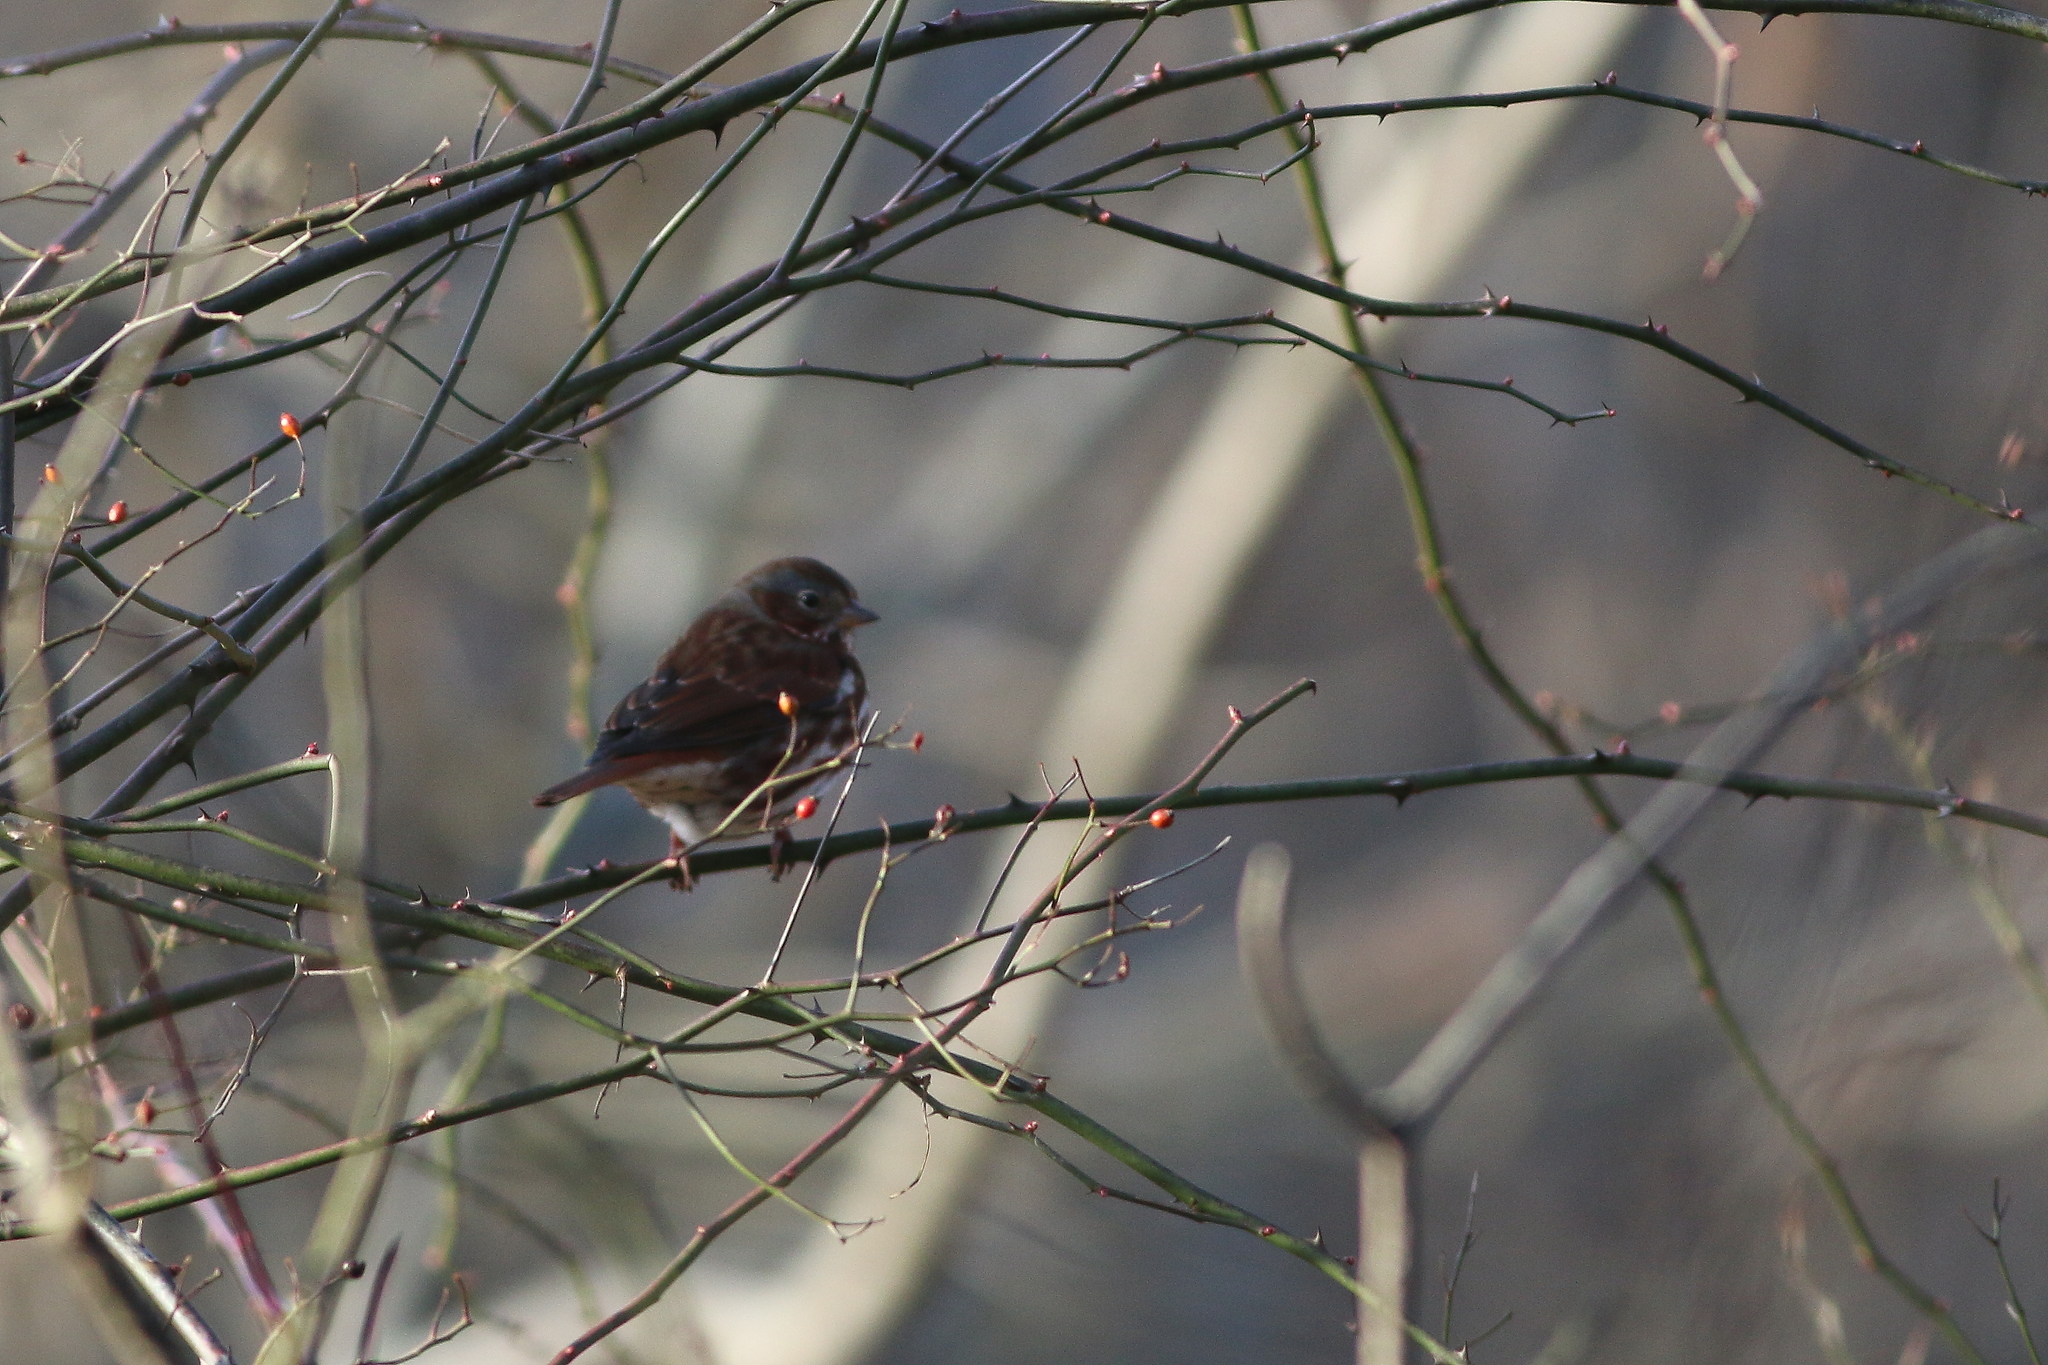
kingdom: Animalia
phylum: Chordata
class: Aves
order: Passeriformes
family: Passerellidae
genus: Passerella
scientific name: Passerella iliaca
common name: Fox sparrow
